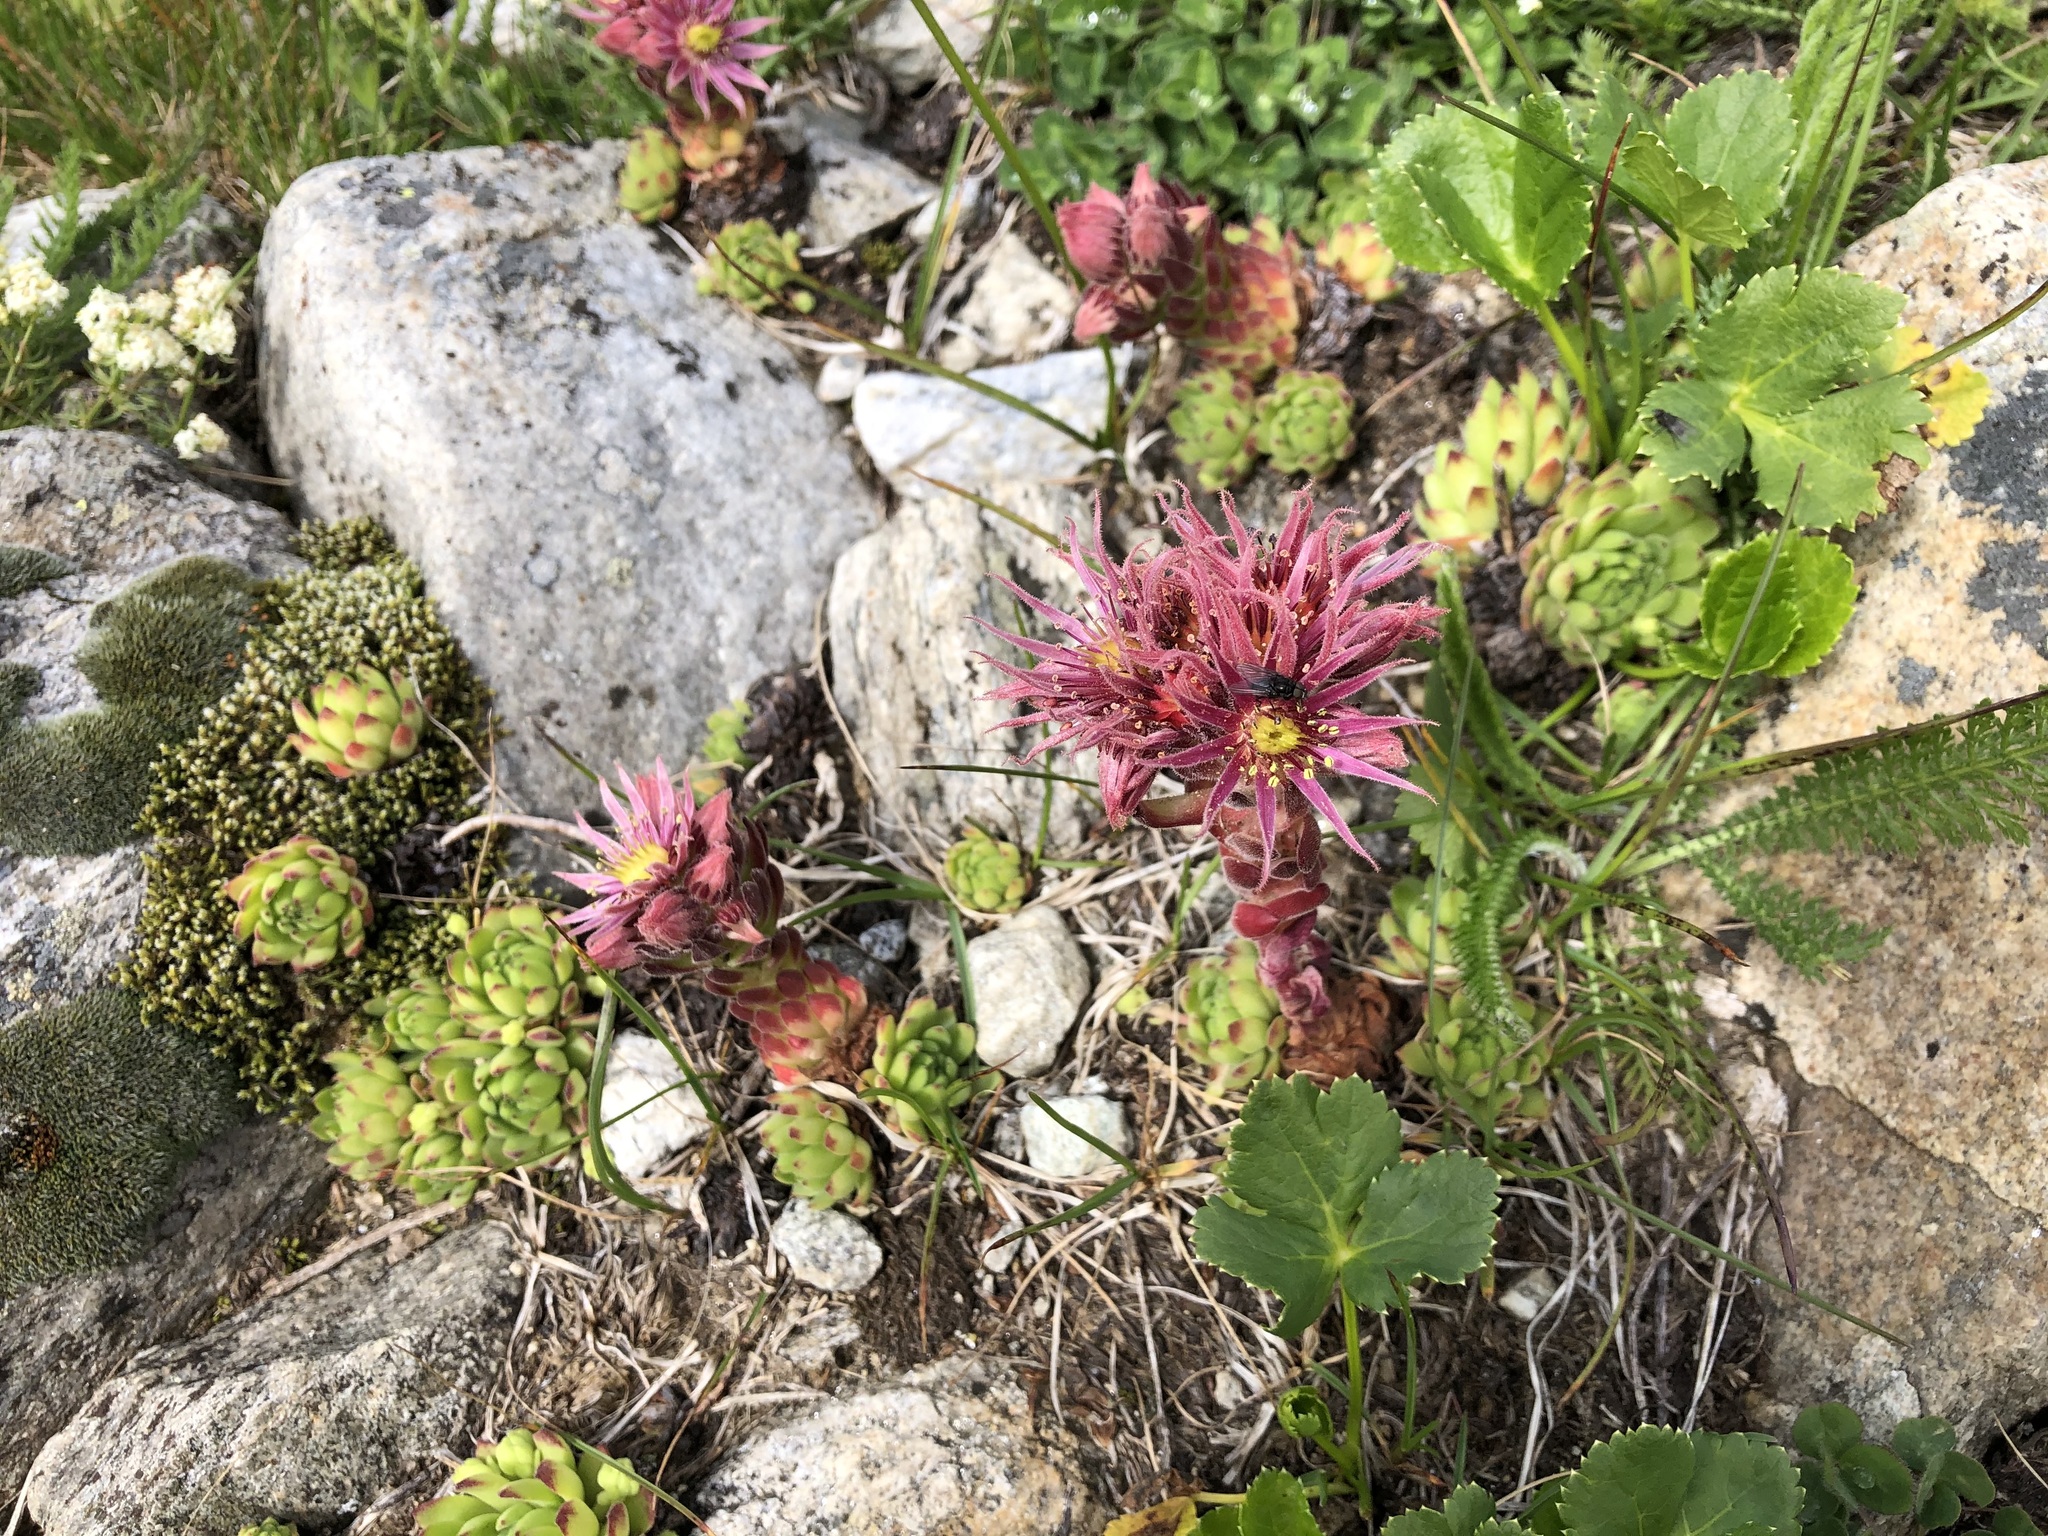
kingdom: Plantae
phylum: Tracheophyta
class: Magnoliopsida
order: Saxifragales
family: Crassulaceae
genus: Sempervivum
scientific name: Sempervivum montanum
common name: Mountain house-leek
